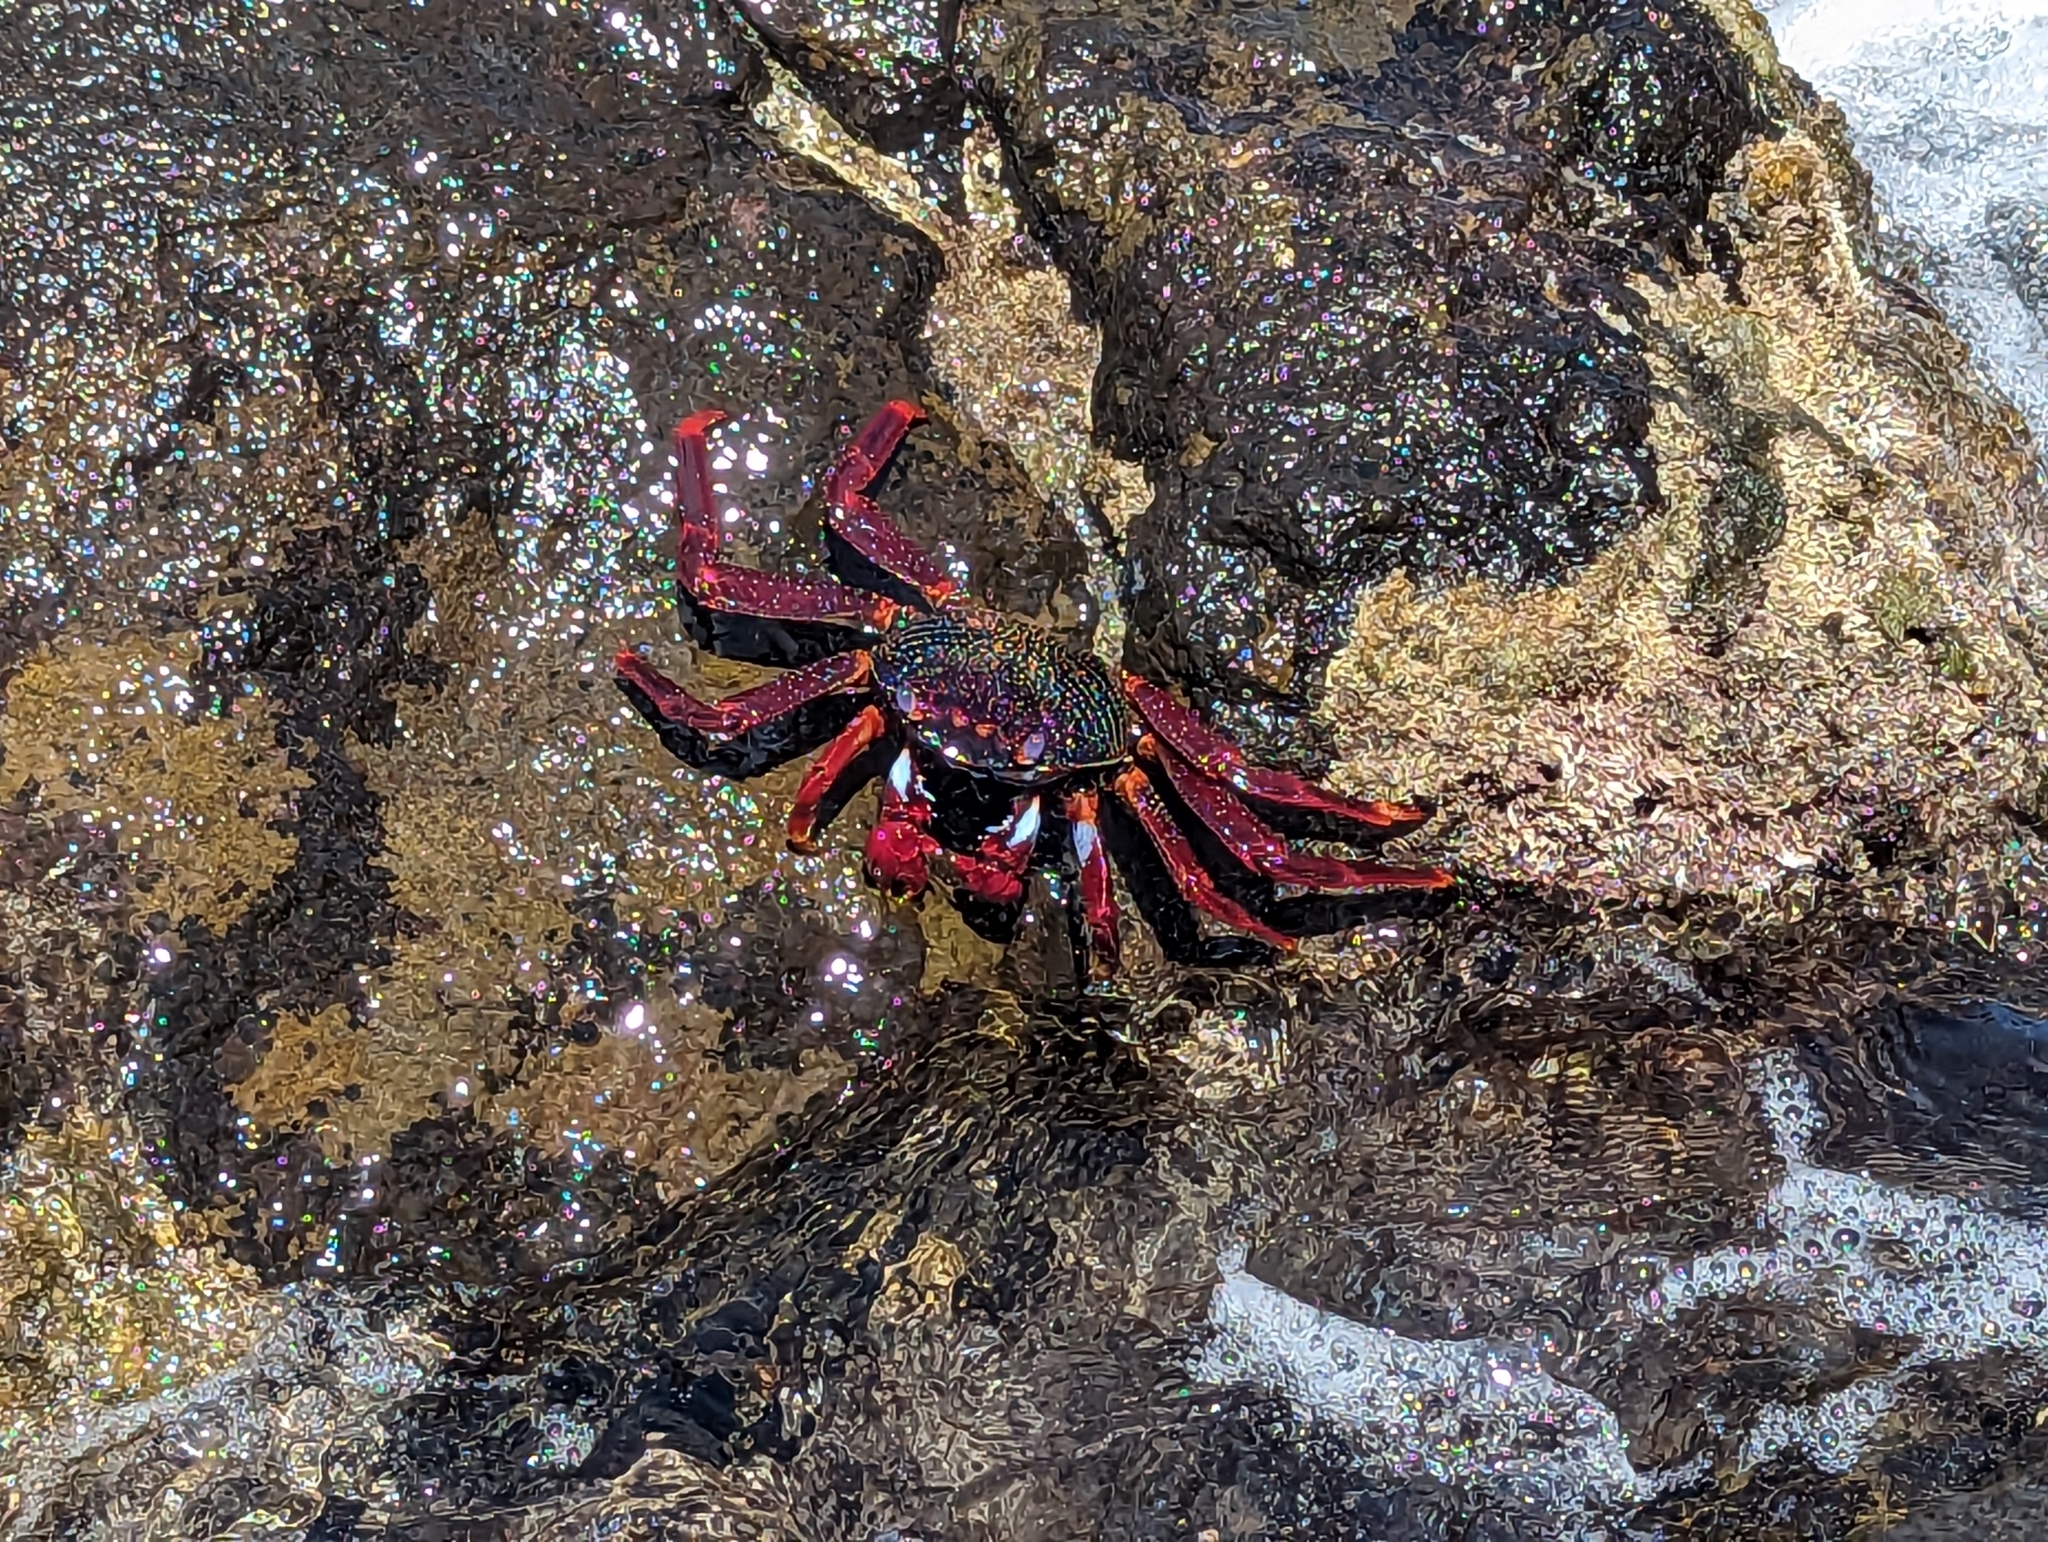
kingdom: Animalia
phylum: Arthropoda
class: Malacostraca
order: Decapoda
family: Grapsidae
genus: Grapsus
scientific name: Grapsus adscensionis
